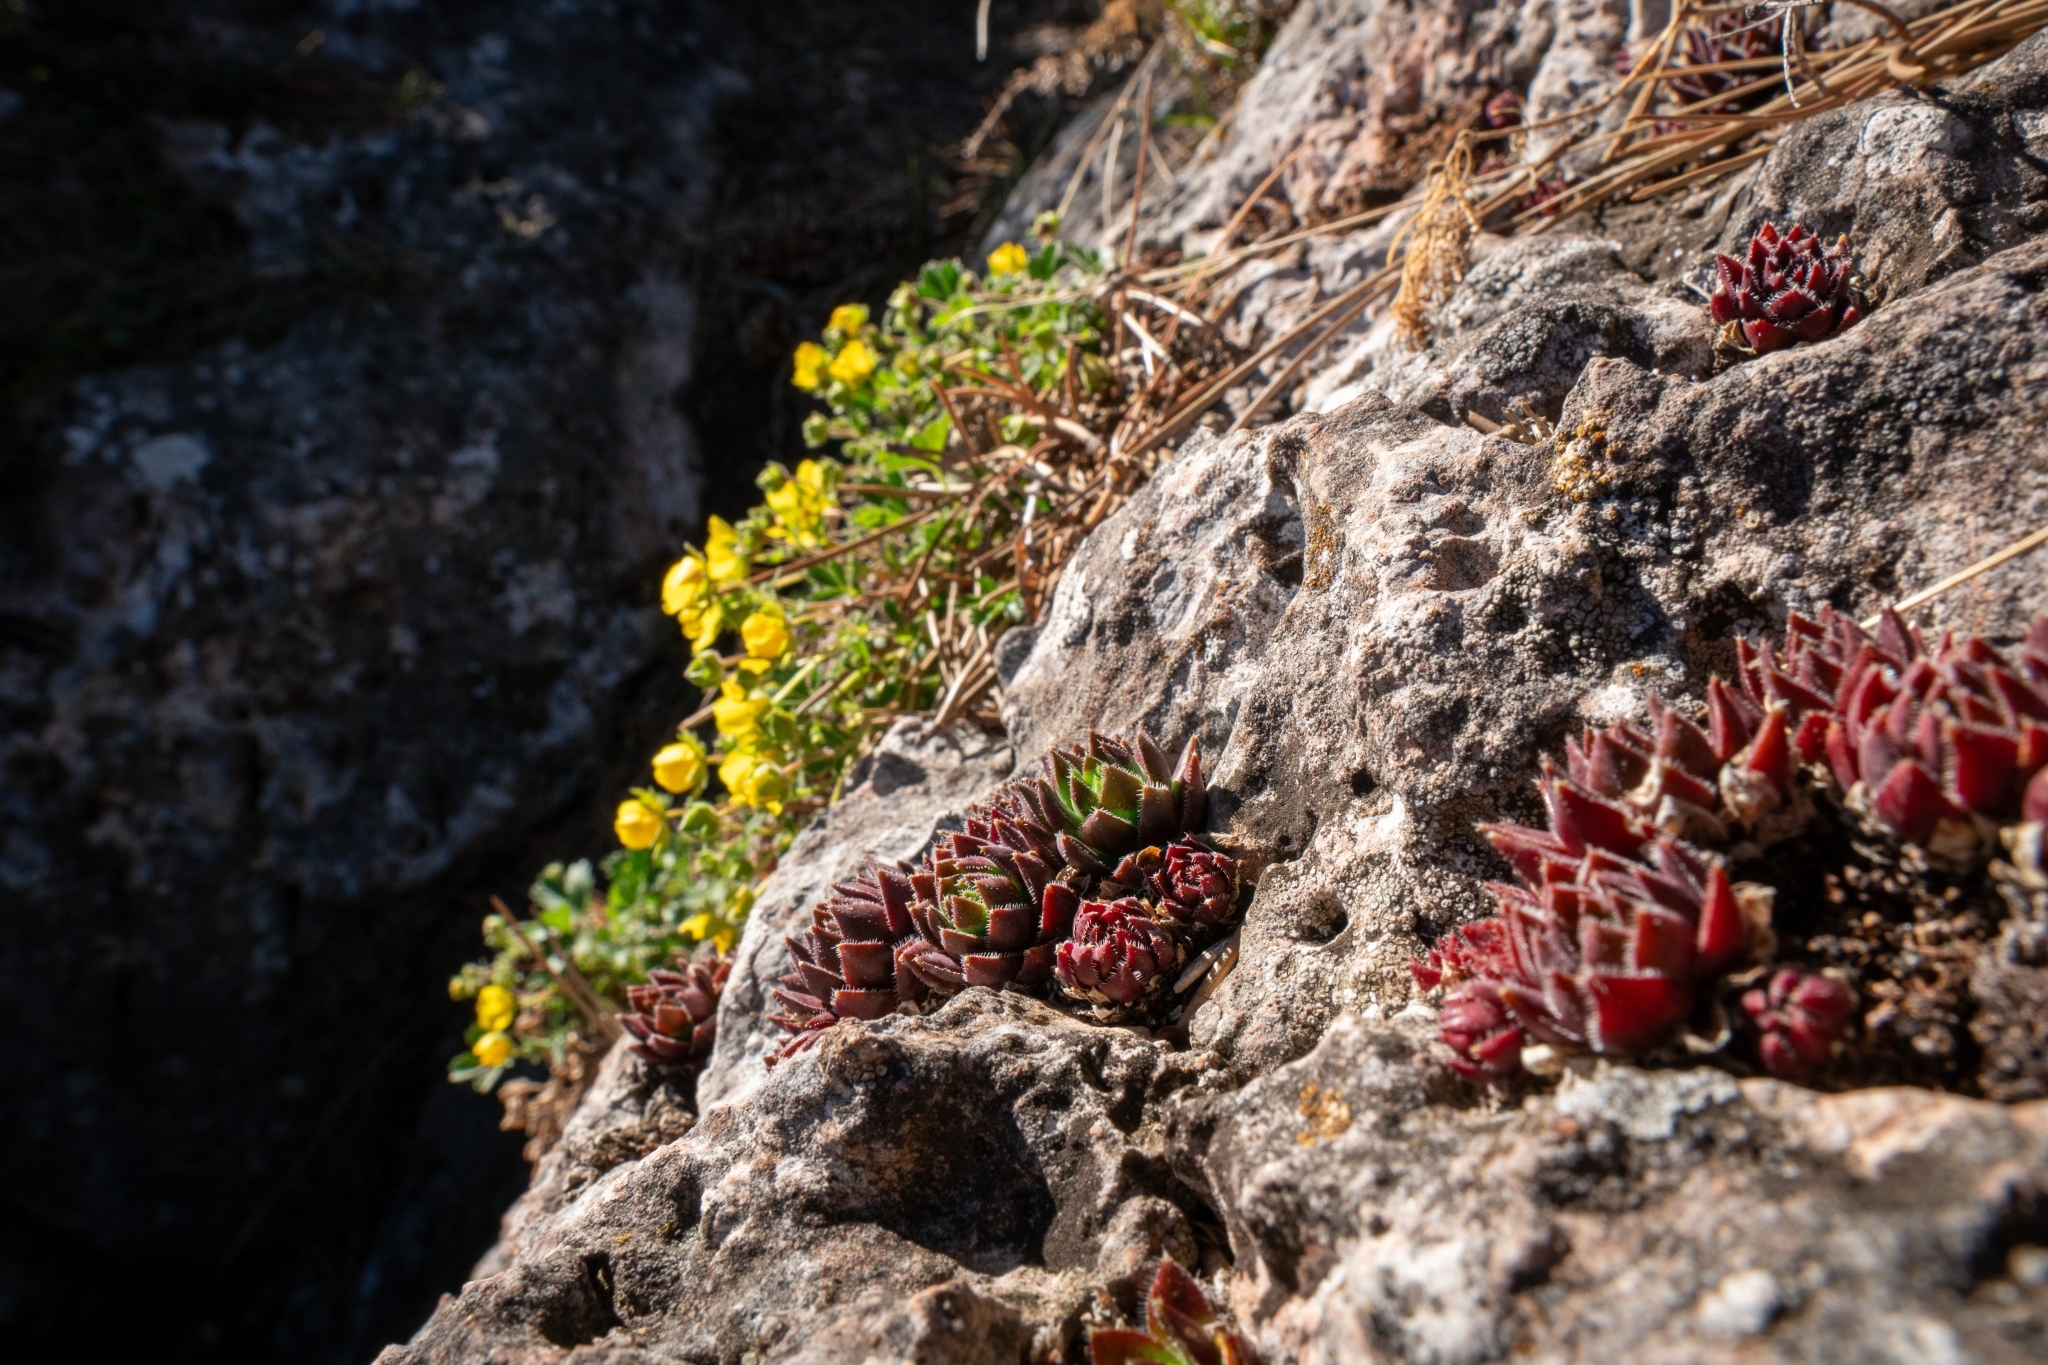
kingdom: Plantae
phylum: Tracheophyta
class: Magnoliopsida
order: Saxifragales
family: Crassulaceae
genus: Sempervivum
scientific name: Sempervivum globiferum
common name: Rolling hen-and-chicks
